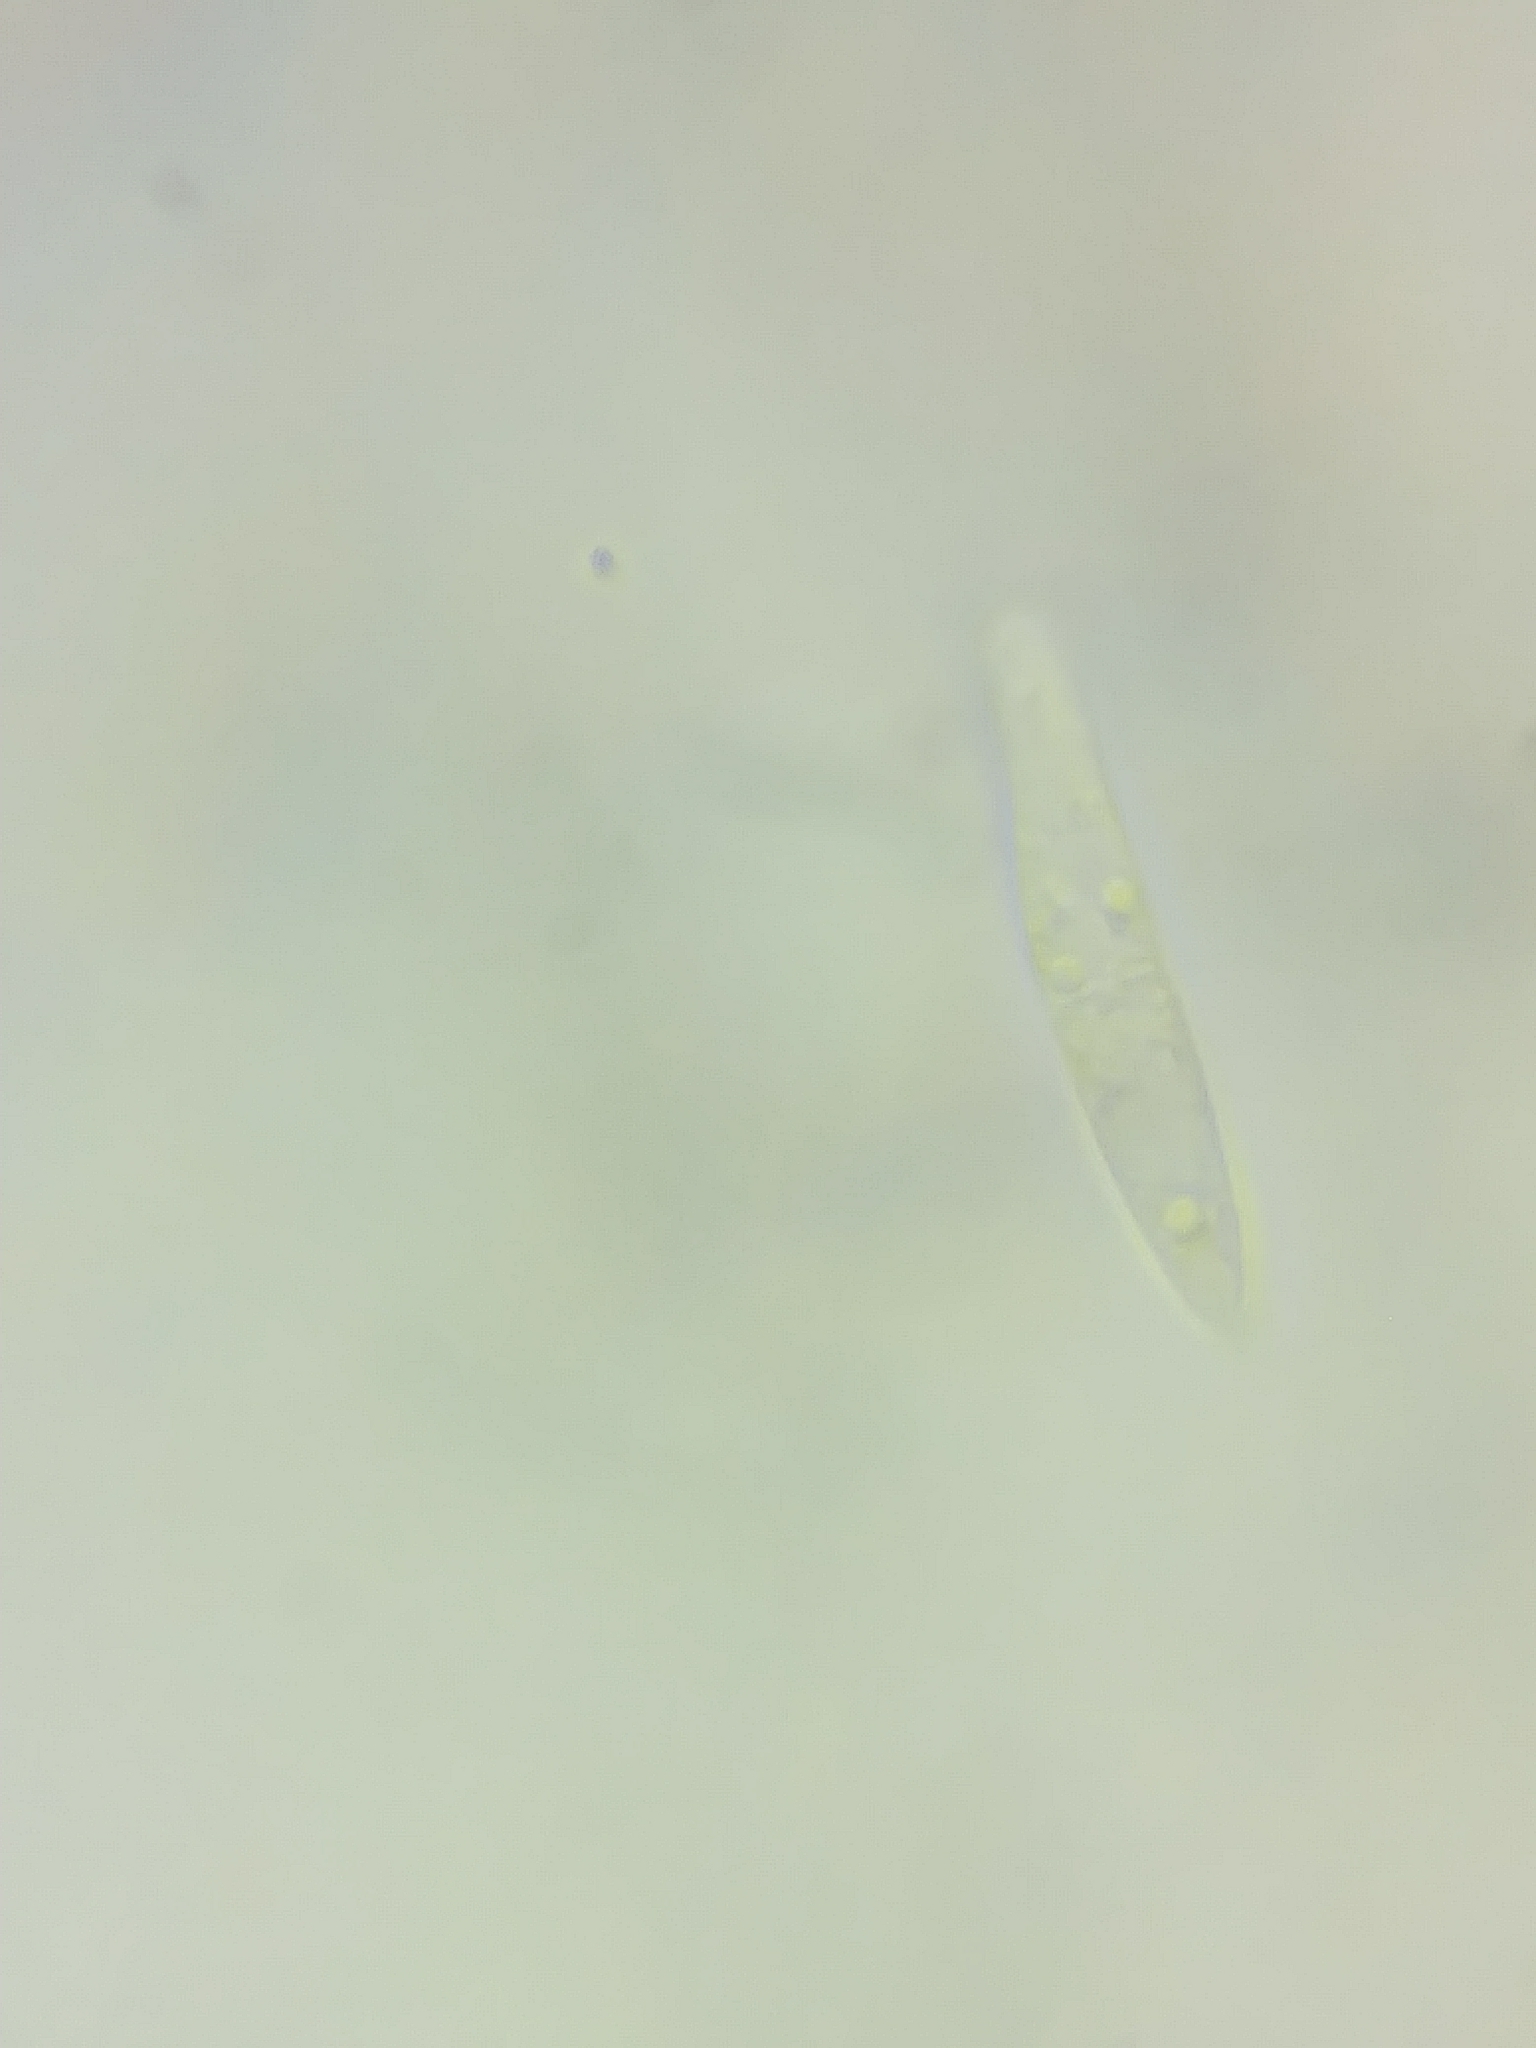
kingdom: Fungi
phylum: Ascomycota
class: Leotiomycetes
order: Helotiales
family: Helotiaceae
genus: Durella
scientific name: Durella atrocyanea
